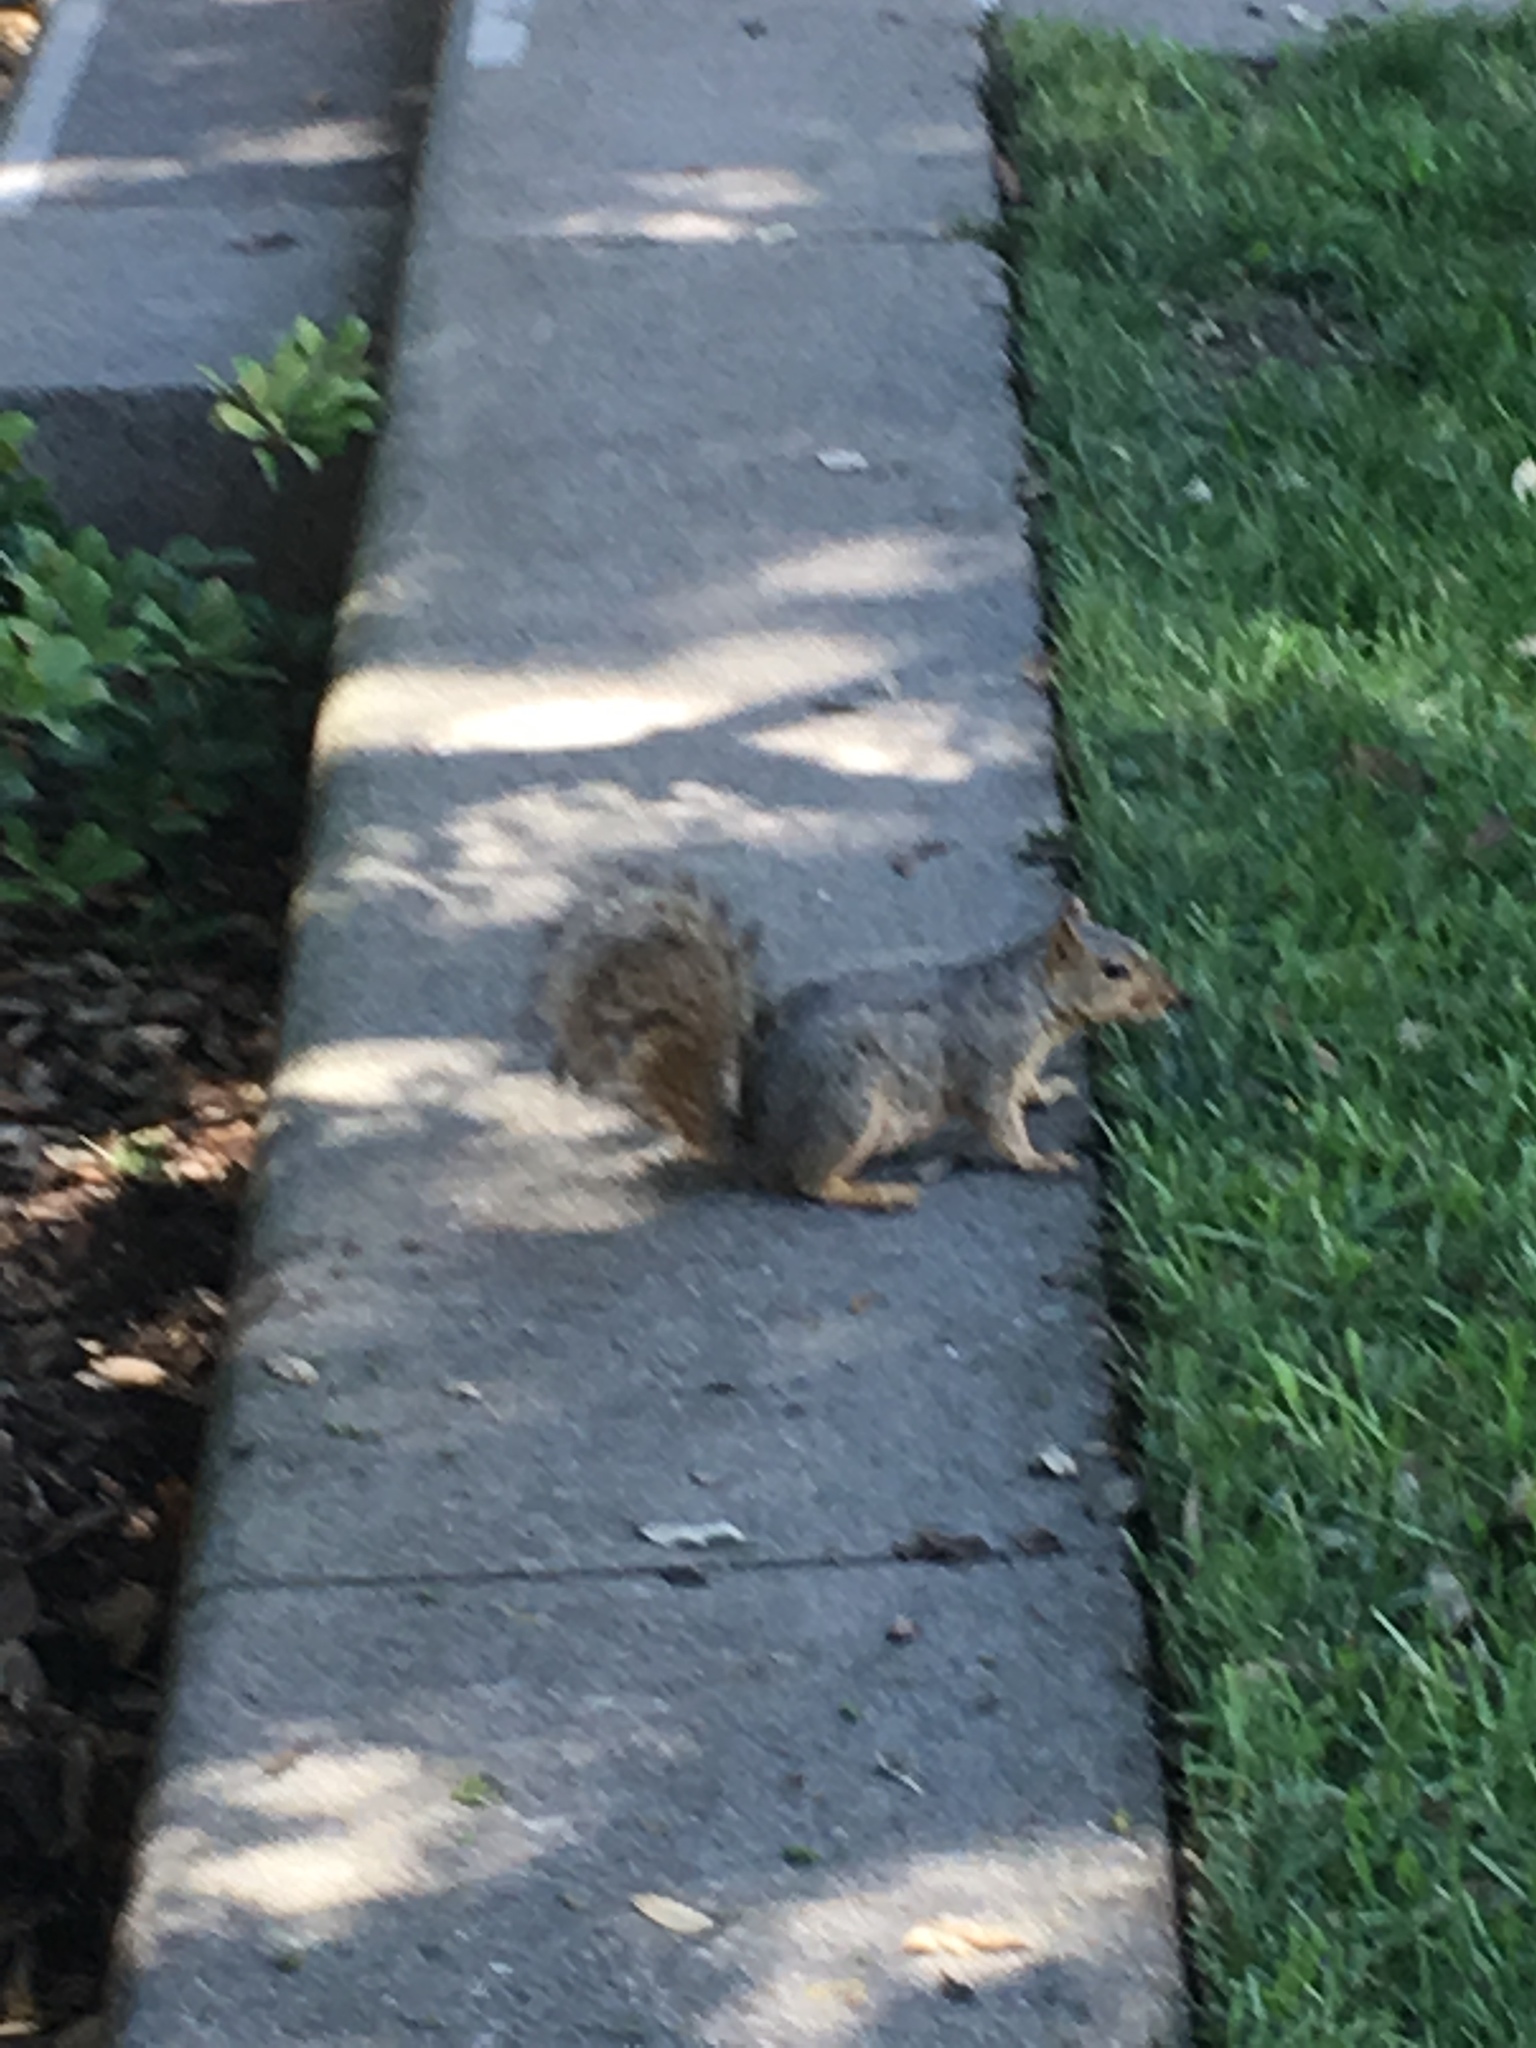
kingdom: Animalia
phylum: Chordata
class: Mammalia
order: Rodentia
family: Sciuridae
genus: Sciurus
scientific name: Sciurus niger
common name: Fox squirrel
